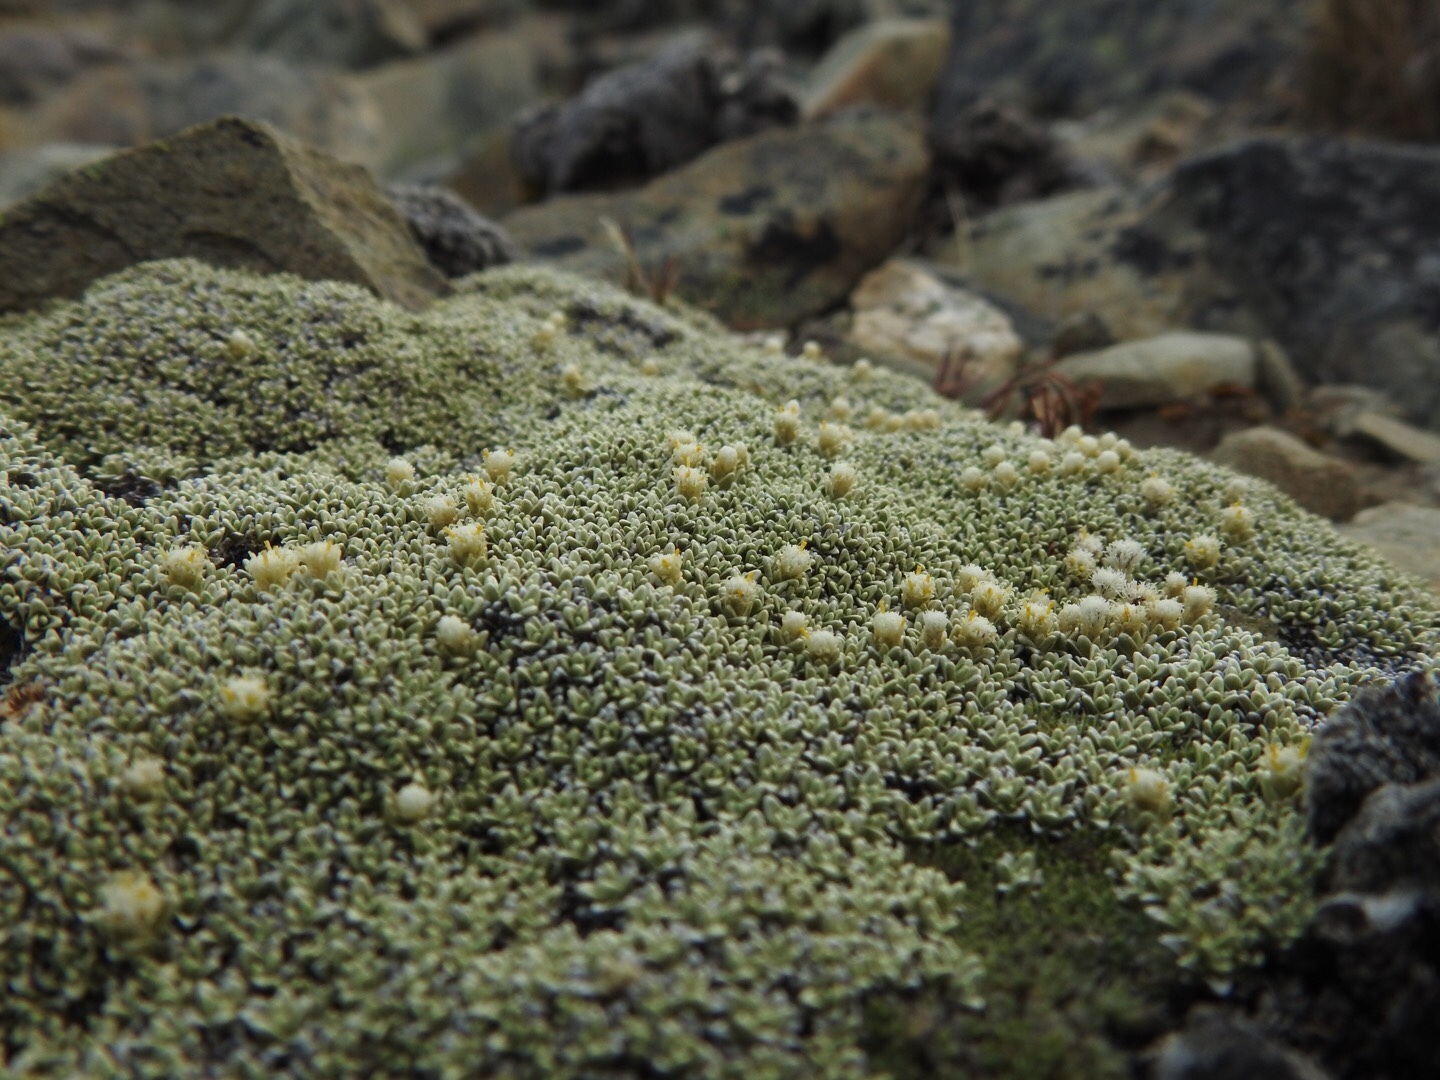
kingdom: Plantae
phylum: Tracheophyta
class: Magnoliopsida
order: Asterales
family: Asteraceae
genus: Raoulia
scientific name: Raoulia hectorii
